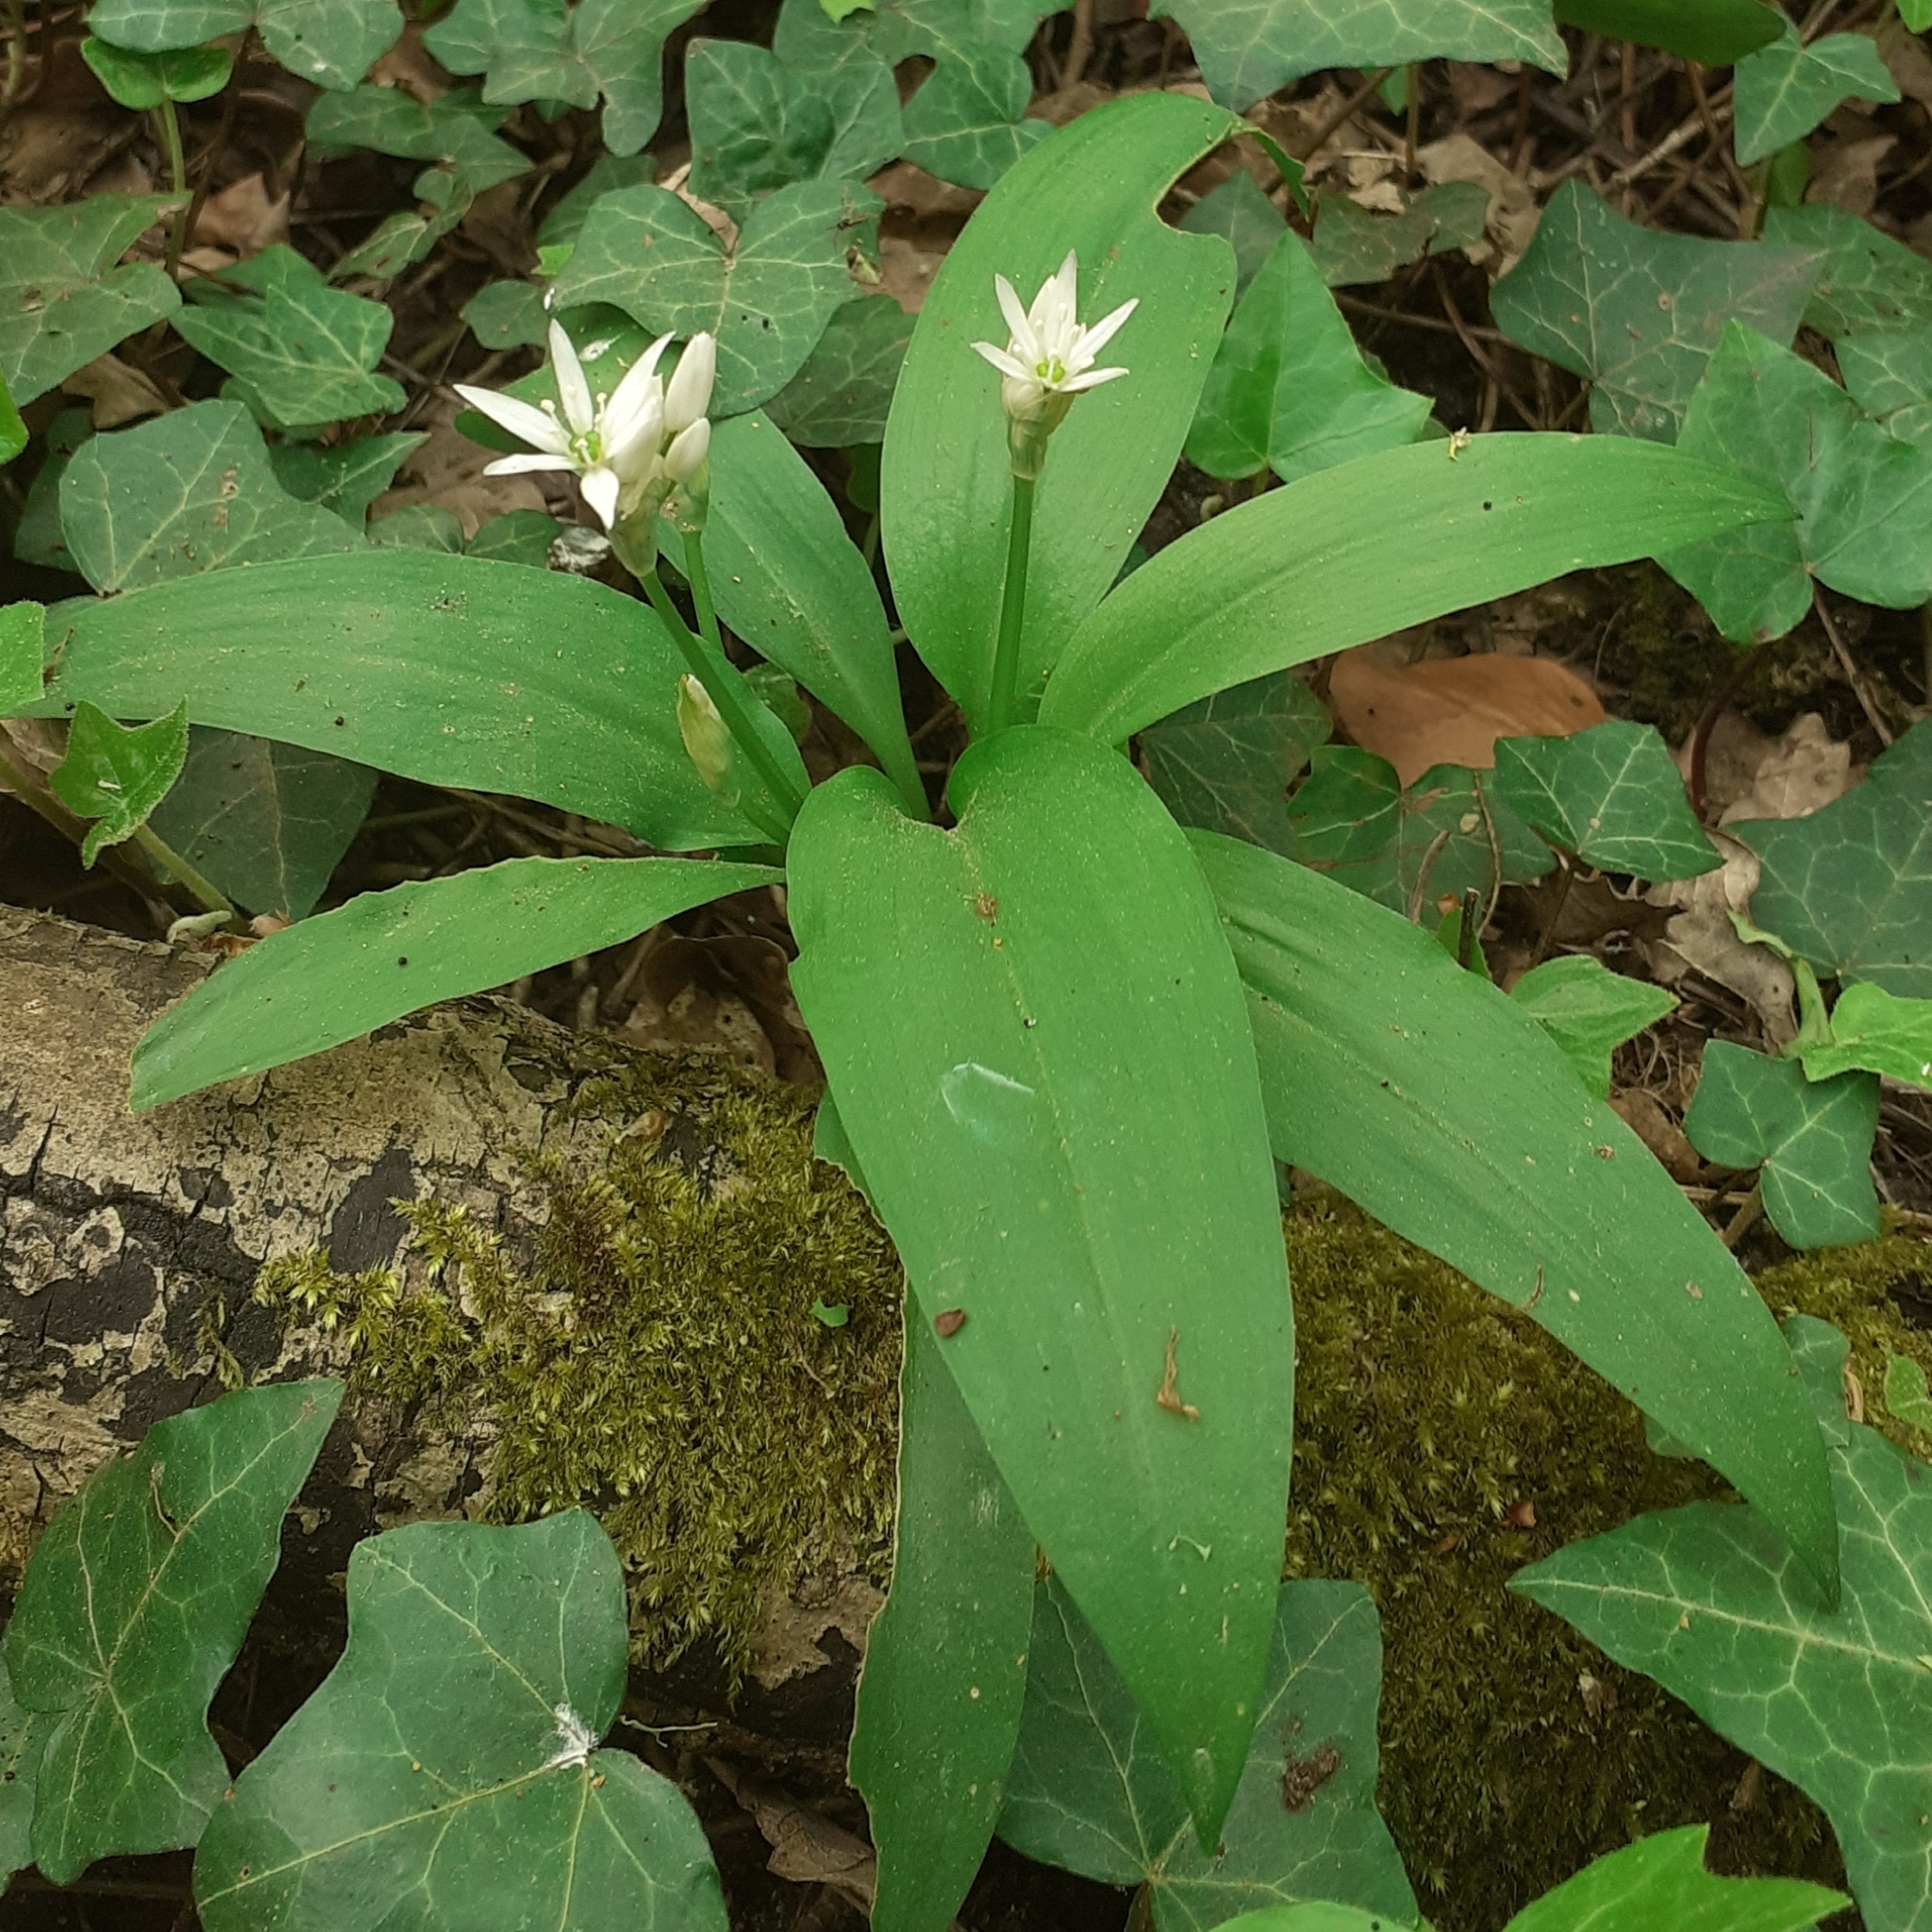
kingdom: Plantae
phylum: Tracheophyta
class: Liliopsida
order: Asparagales
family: Amaryllidaceae
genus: Allium
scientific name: Allium ursinum
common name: Ramsons
